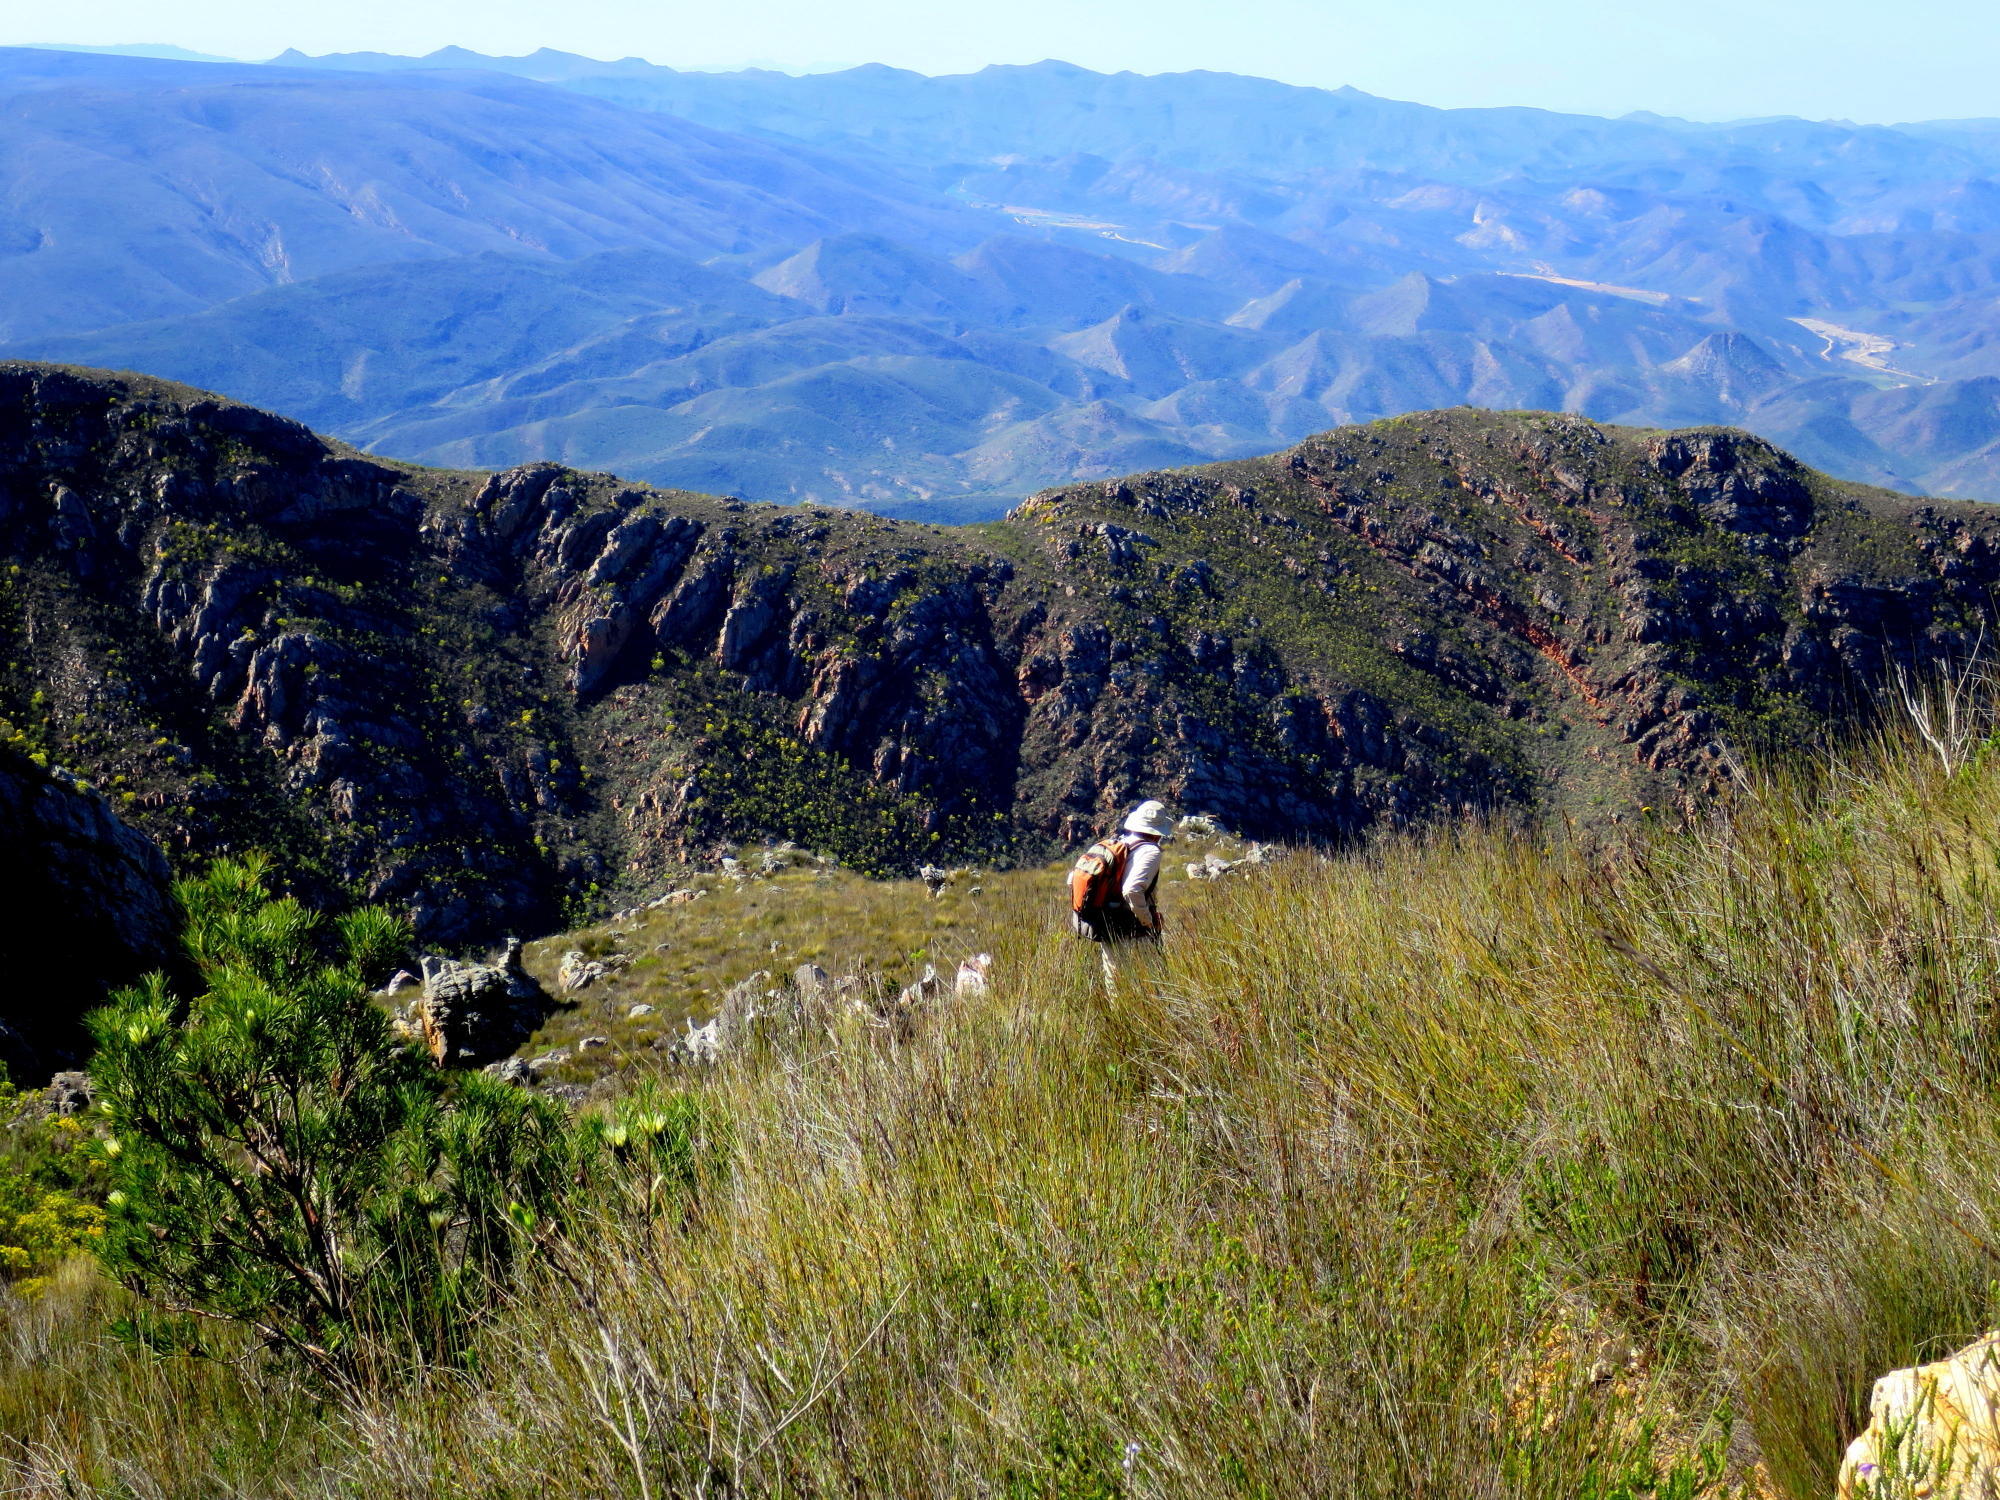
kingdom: Plantae
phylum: Tracheophyta
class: Magnoliopsida
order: Proteales
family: Proteaceae
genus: Protea
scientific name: Protea repens
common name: Sugarbush
